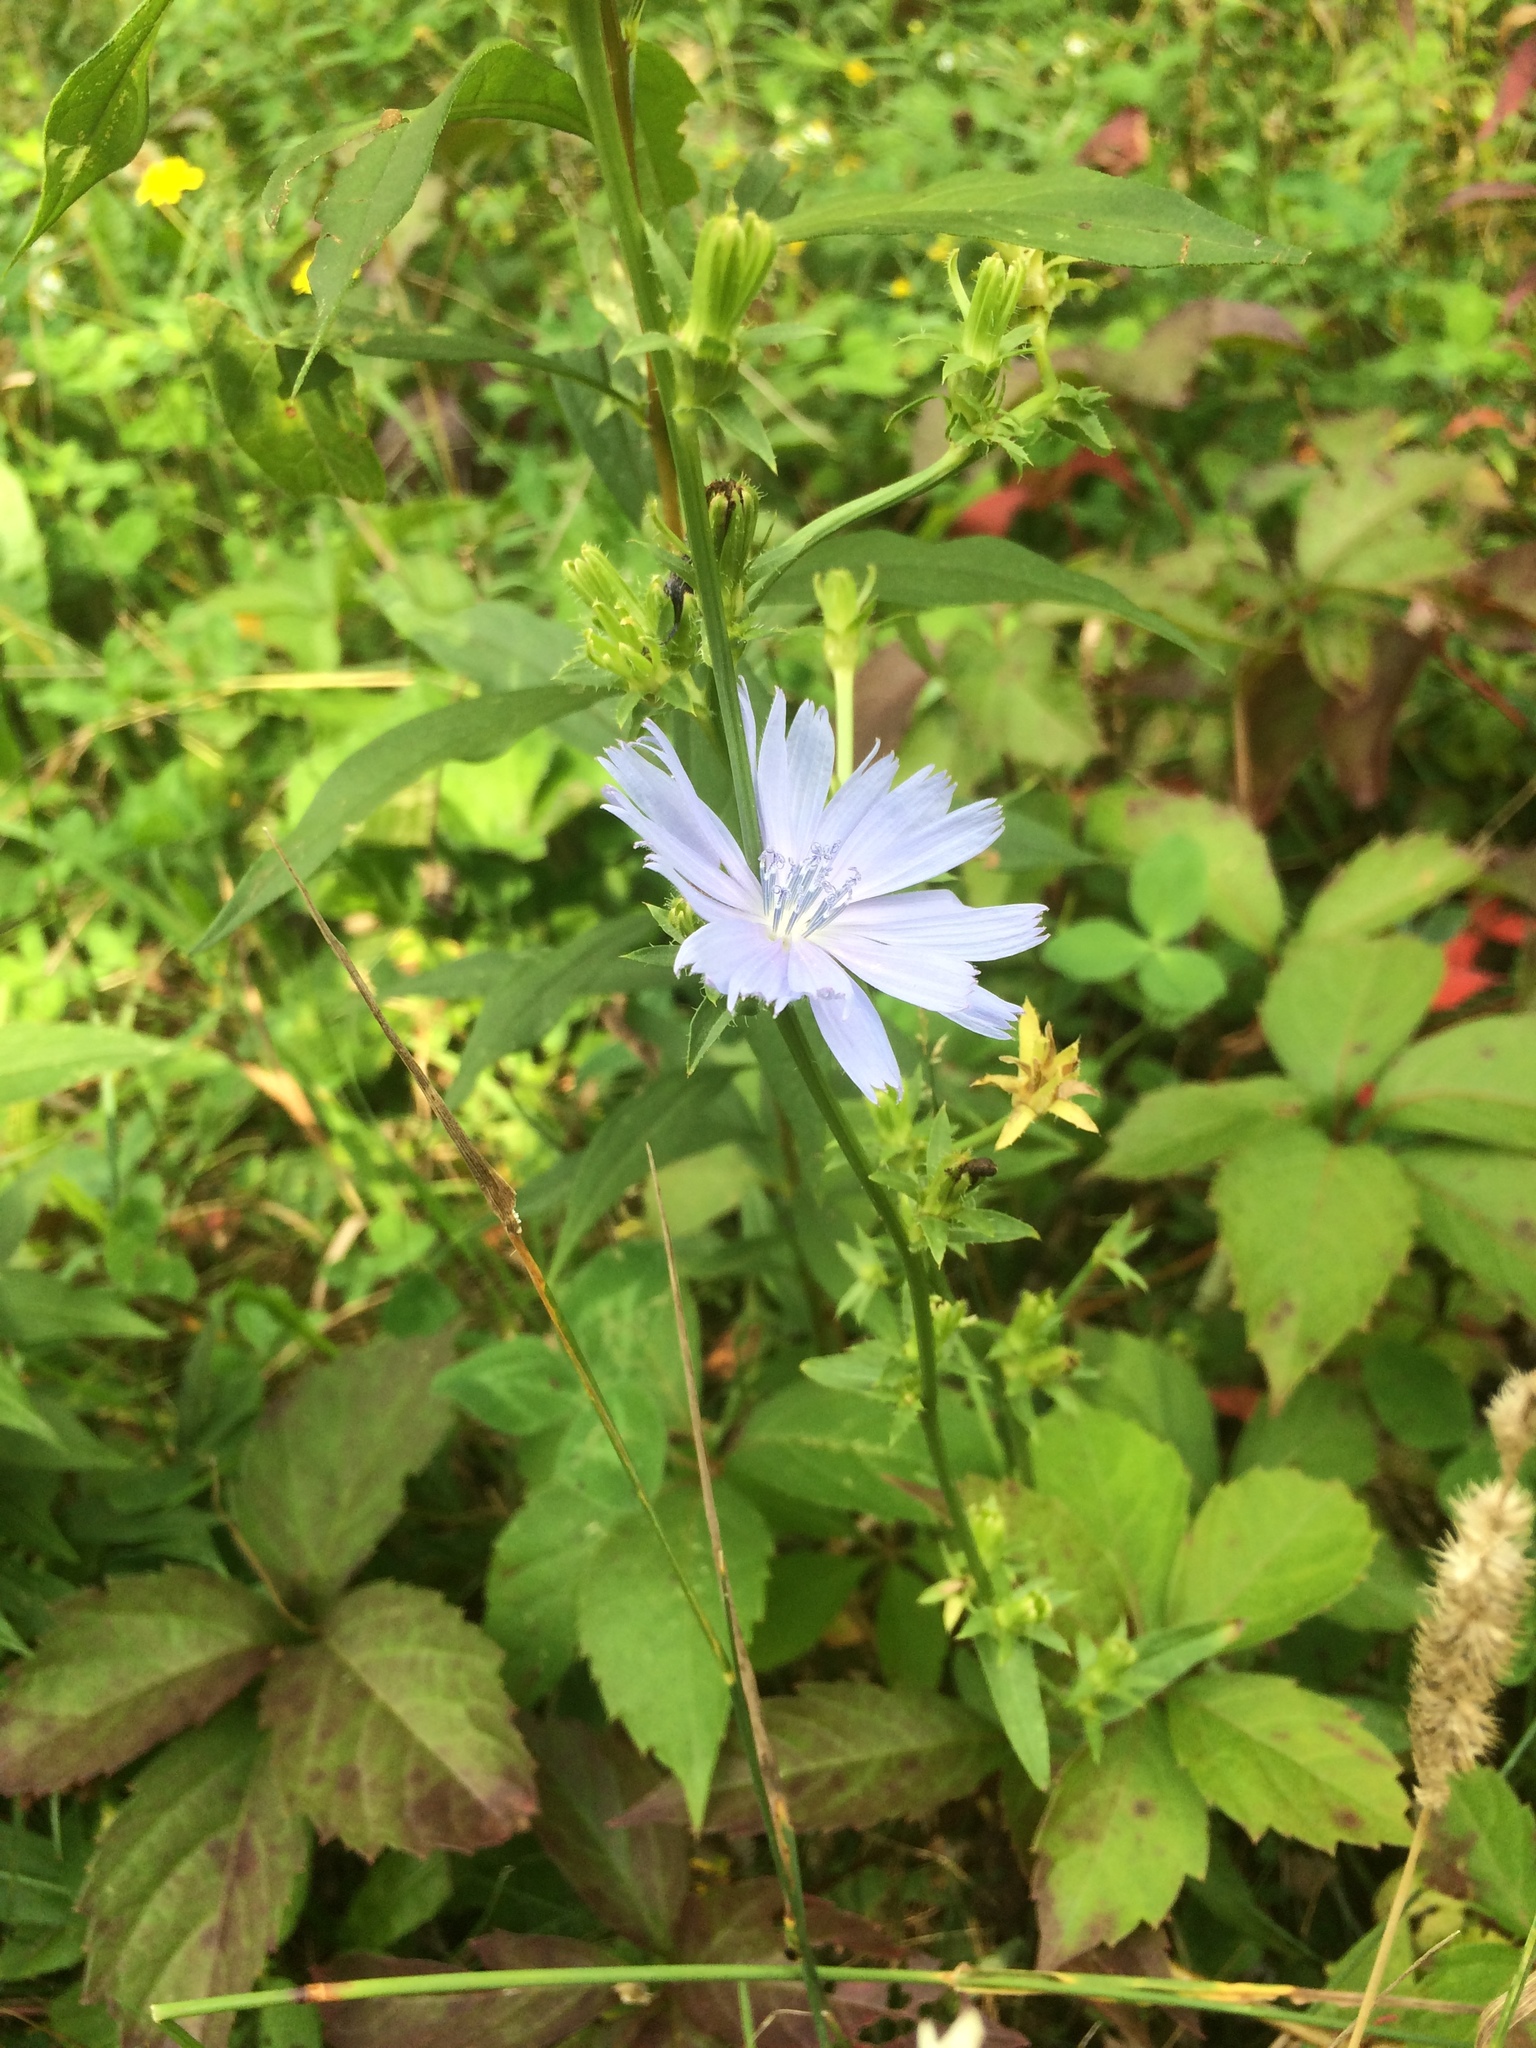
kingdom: Plantae
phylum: Tracheophyta
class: Magnoliopsida
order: Asterales
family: Asteraceae
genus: Cichorium
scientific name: Cichorium intybus
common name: Chicory
